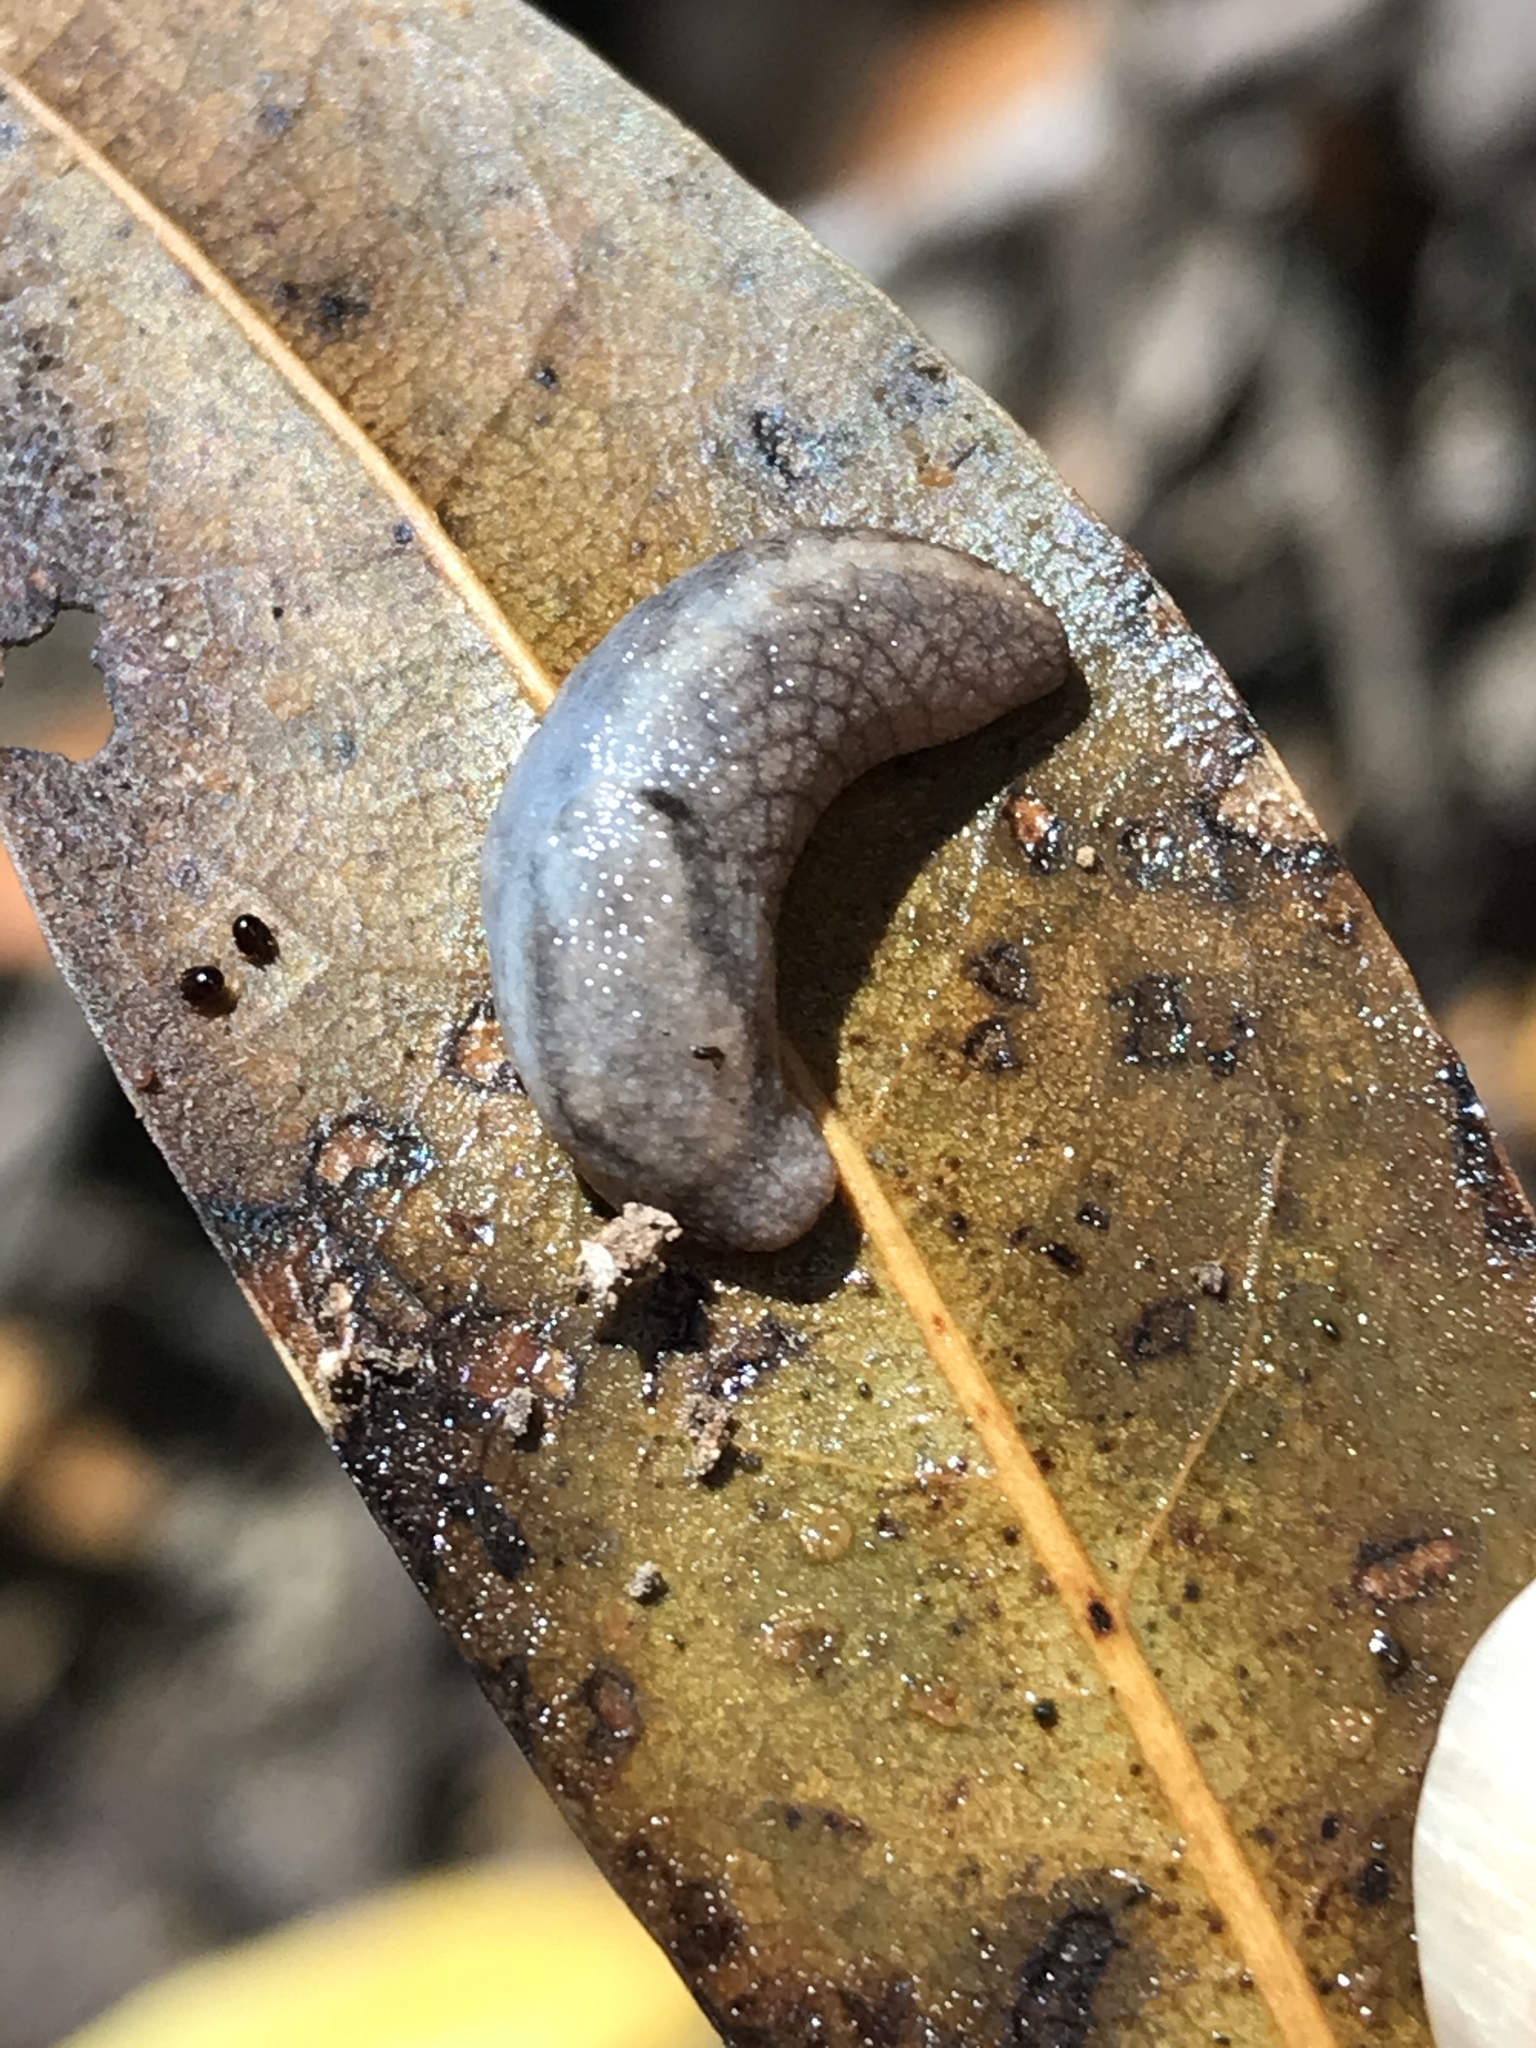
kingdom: Animalia
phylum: Mollusca
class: Gastropoda
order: Stylommatophora
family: Ariolimacidae
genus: Prophysaon
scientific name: Prophysaon andersonii
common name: Reticulate taildropper
